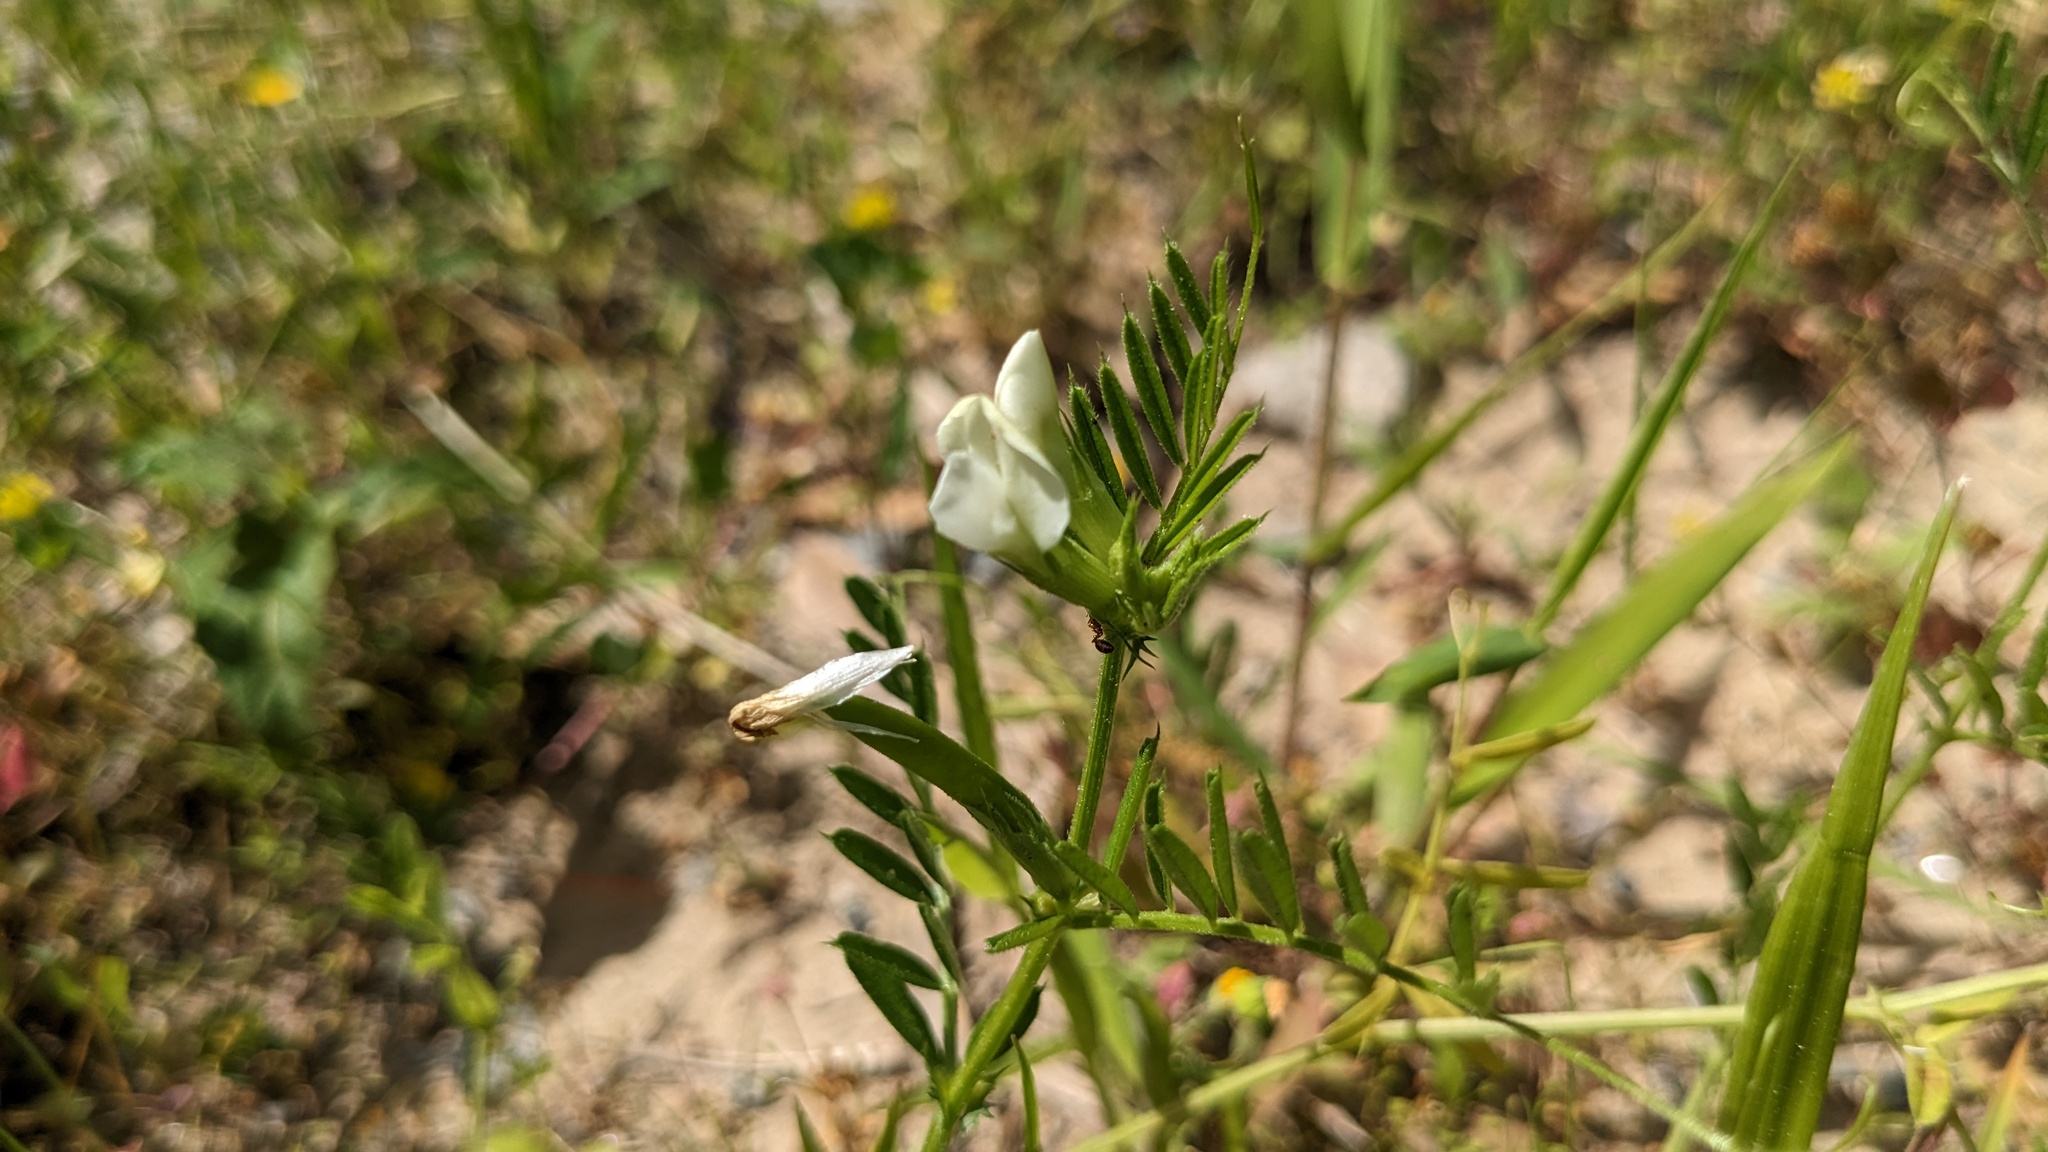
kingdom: Plantae
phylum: Tracheophyta
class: Magnoliopsida
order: Fabales
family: Fabaceae
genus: Vicia
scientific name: Vicia sativa
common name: Garden vetch
